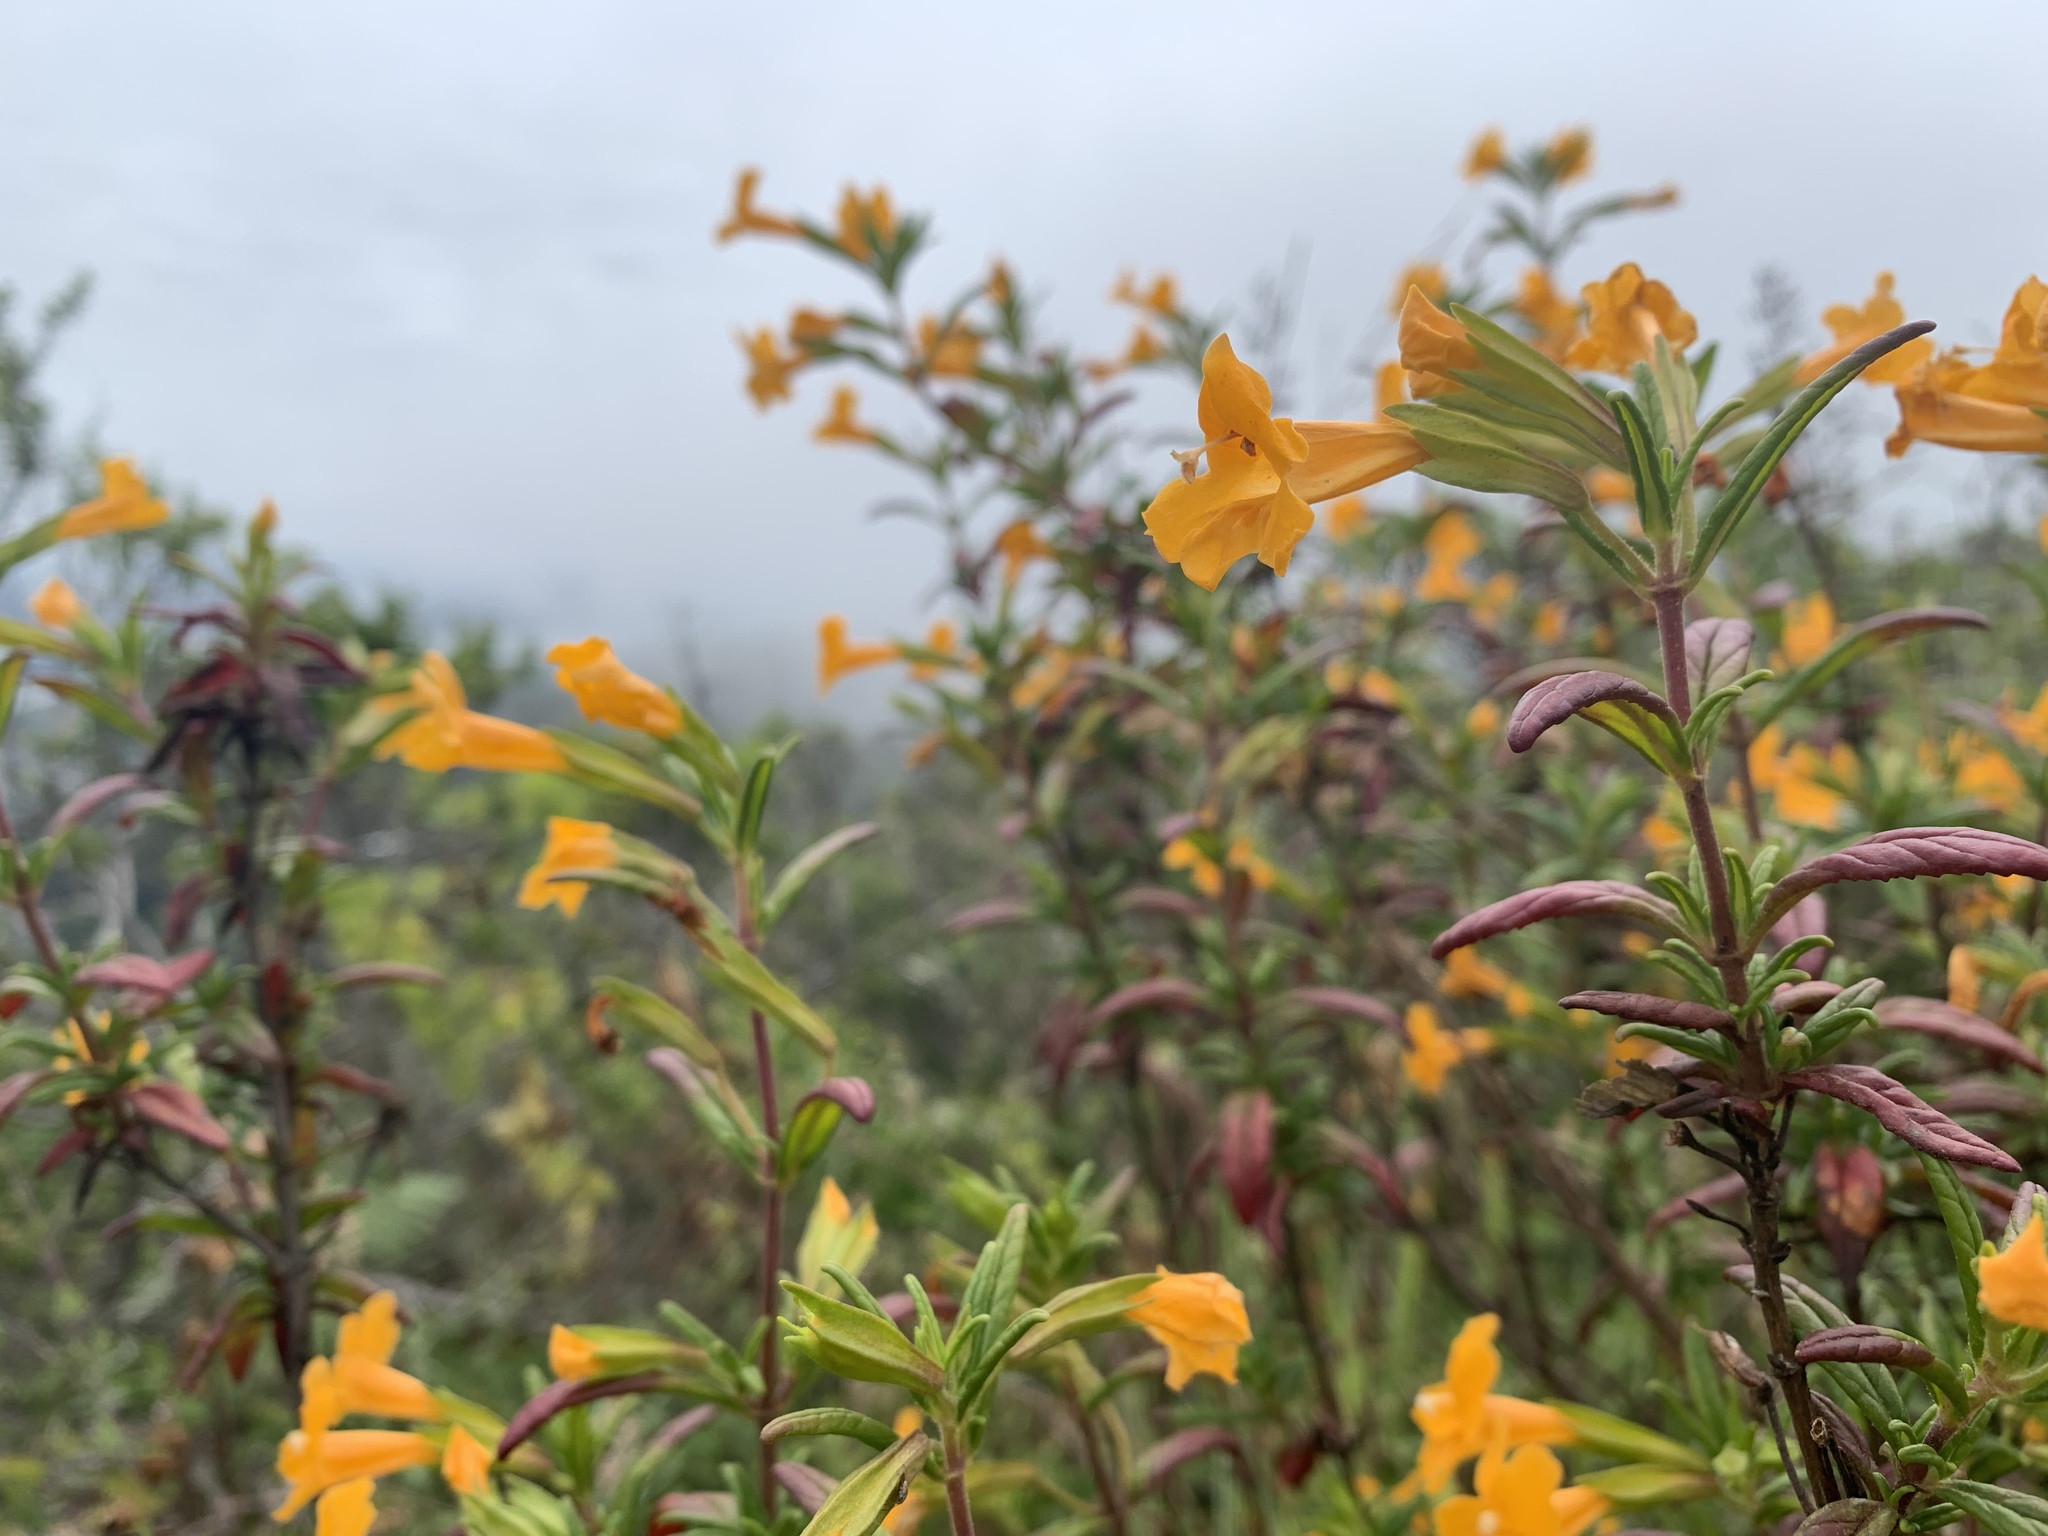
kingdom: Plantae
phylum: Tracheophyta
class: Magnoliopsida
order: Lamiales
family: Phrymaceae
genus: Diplacus
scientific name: Diplacus aurantiacus
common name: Bush monkey-flower
